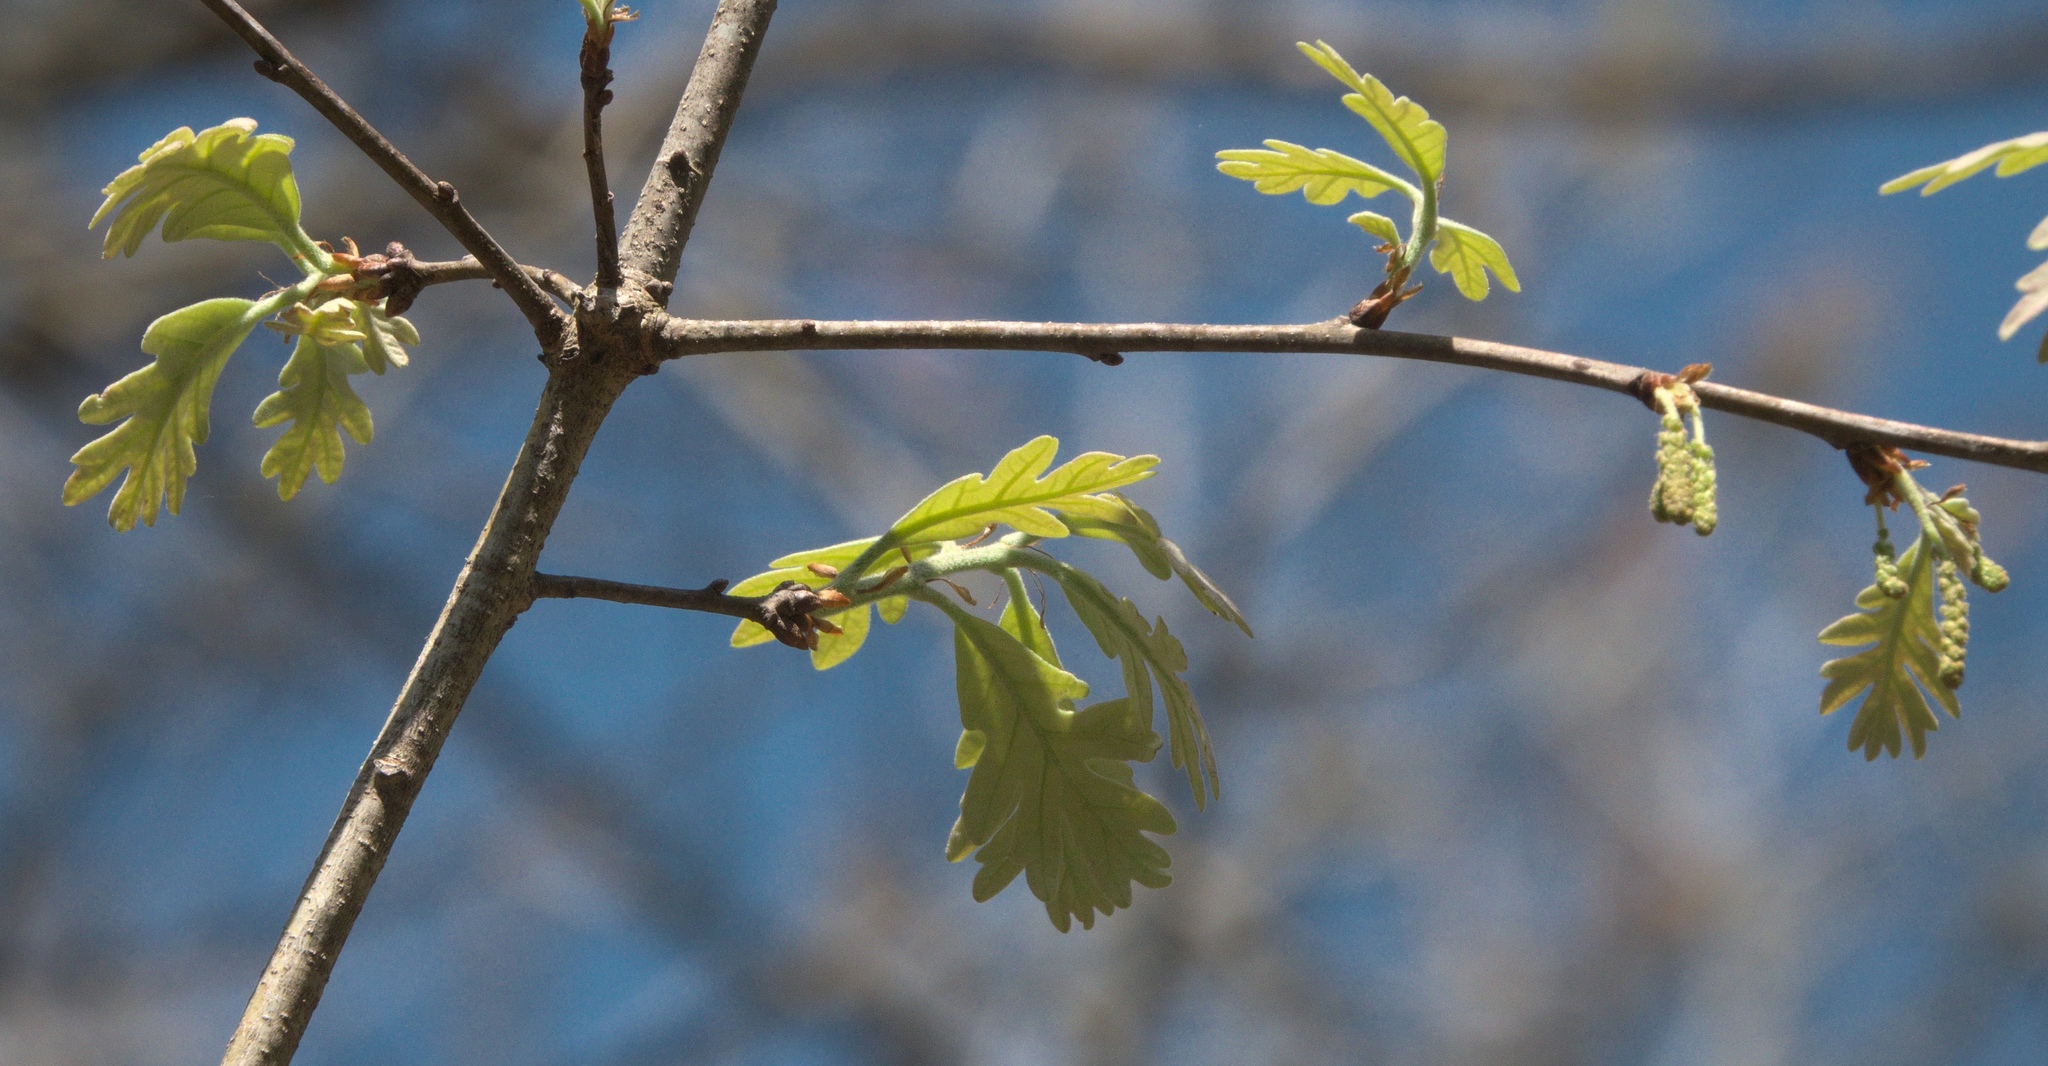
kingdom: Plantae
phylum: Tracheophyta
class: Magnoliopsida
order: Fagales
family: Fagaceae
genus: Quercus
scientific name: Quercus alba
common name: White oak
